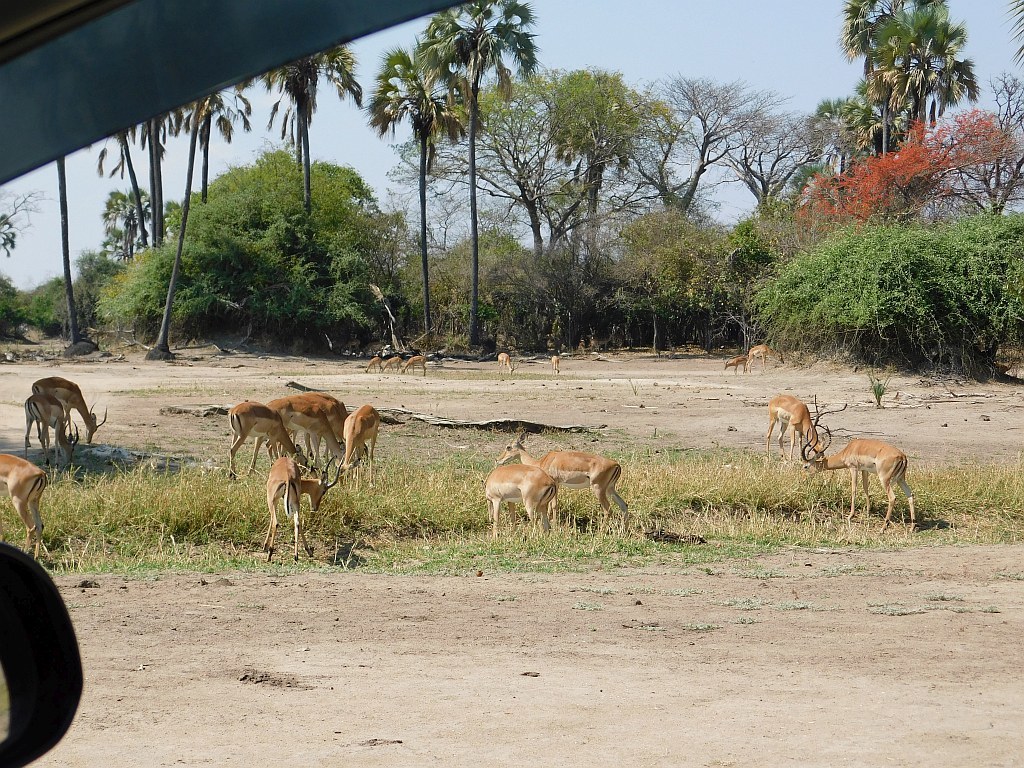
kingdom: Animalia
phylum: Chordata
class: Mammalia
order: Artiodactyla
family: Bovidae
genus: Aepyceros
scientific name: Aepyceros melampus
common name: Impala
